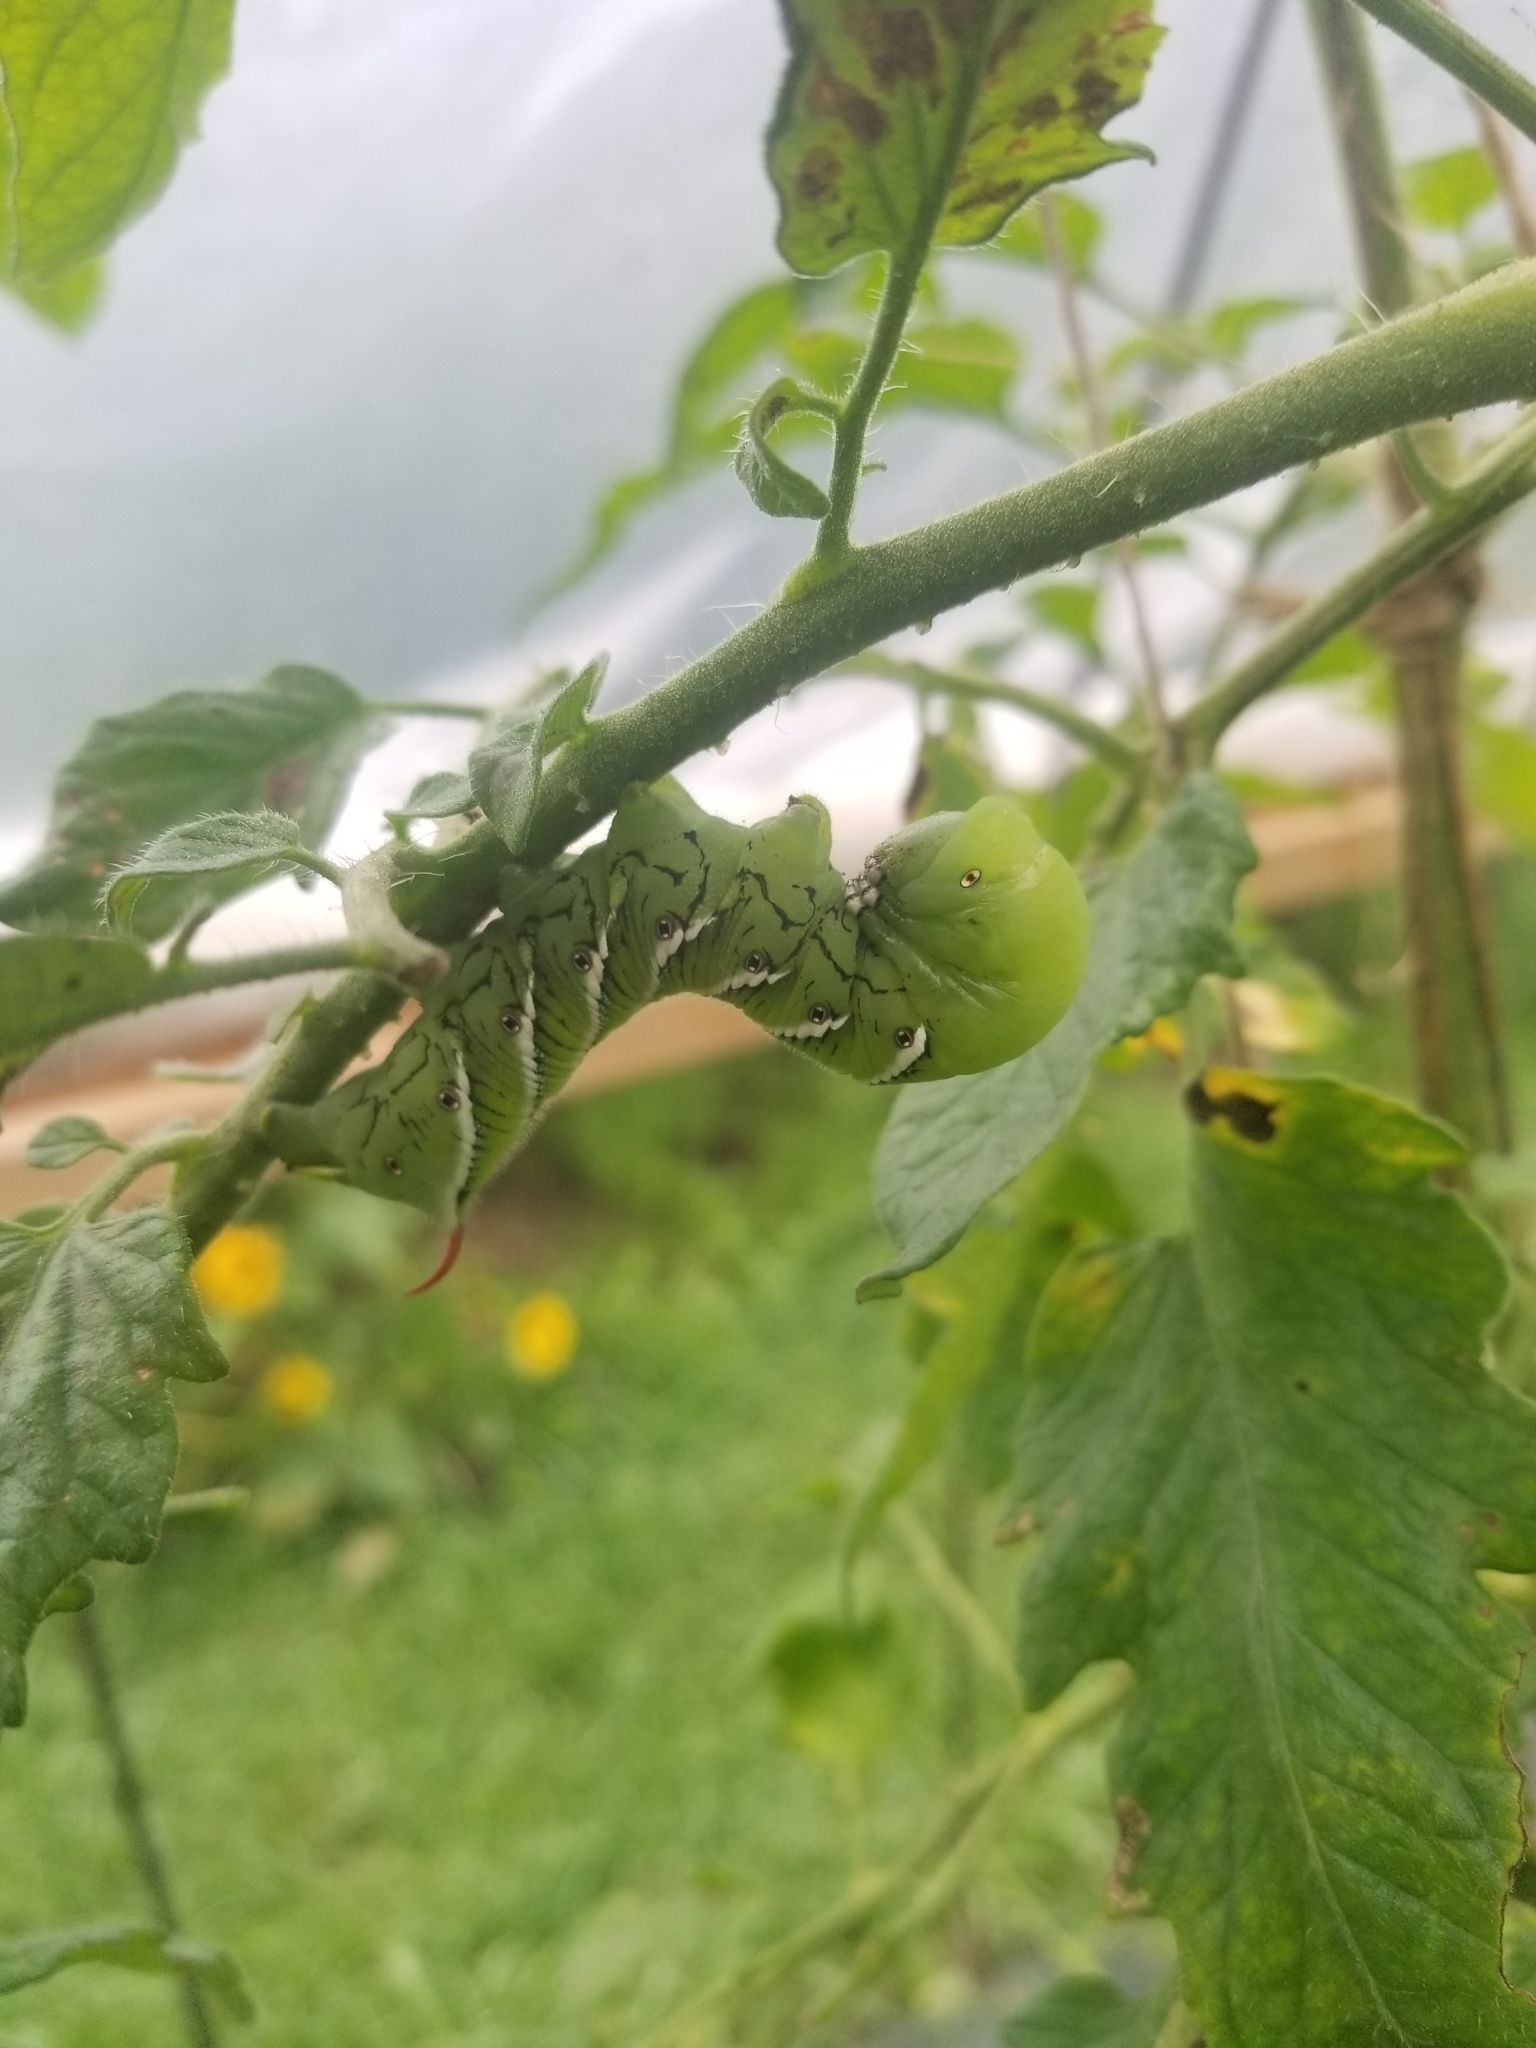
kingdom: Animalia
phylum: Arthropoda
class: Insecta
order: Lepidoptera
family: Sphingidae
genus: Manduca
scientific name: Manduca sexta
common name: Carolina sphinx
